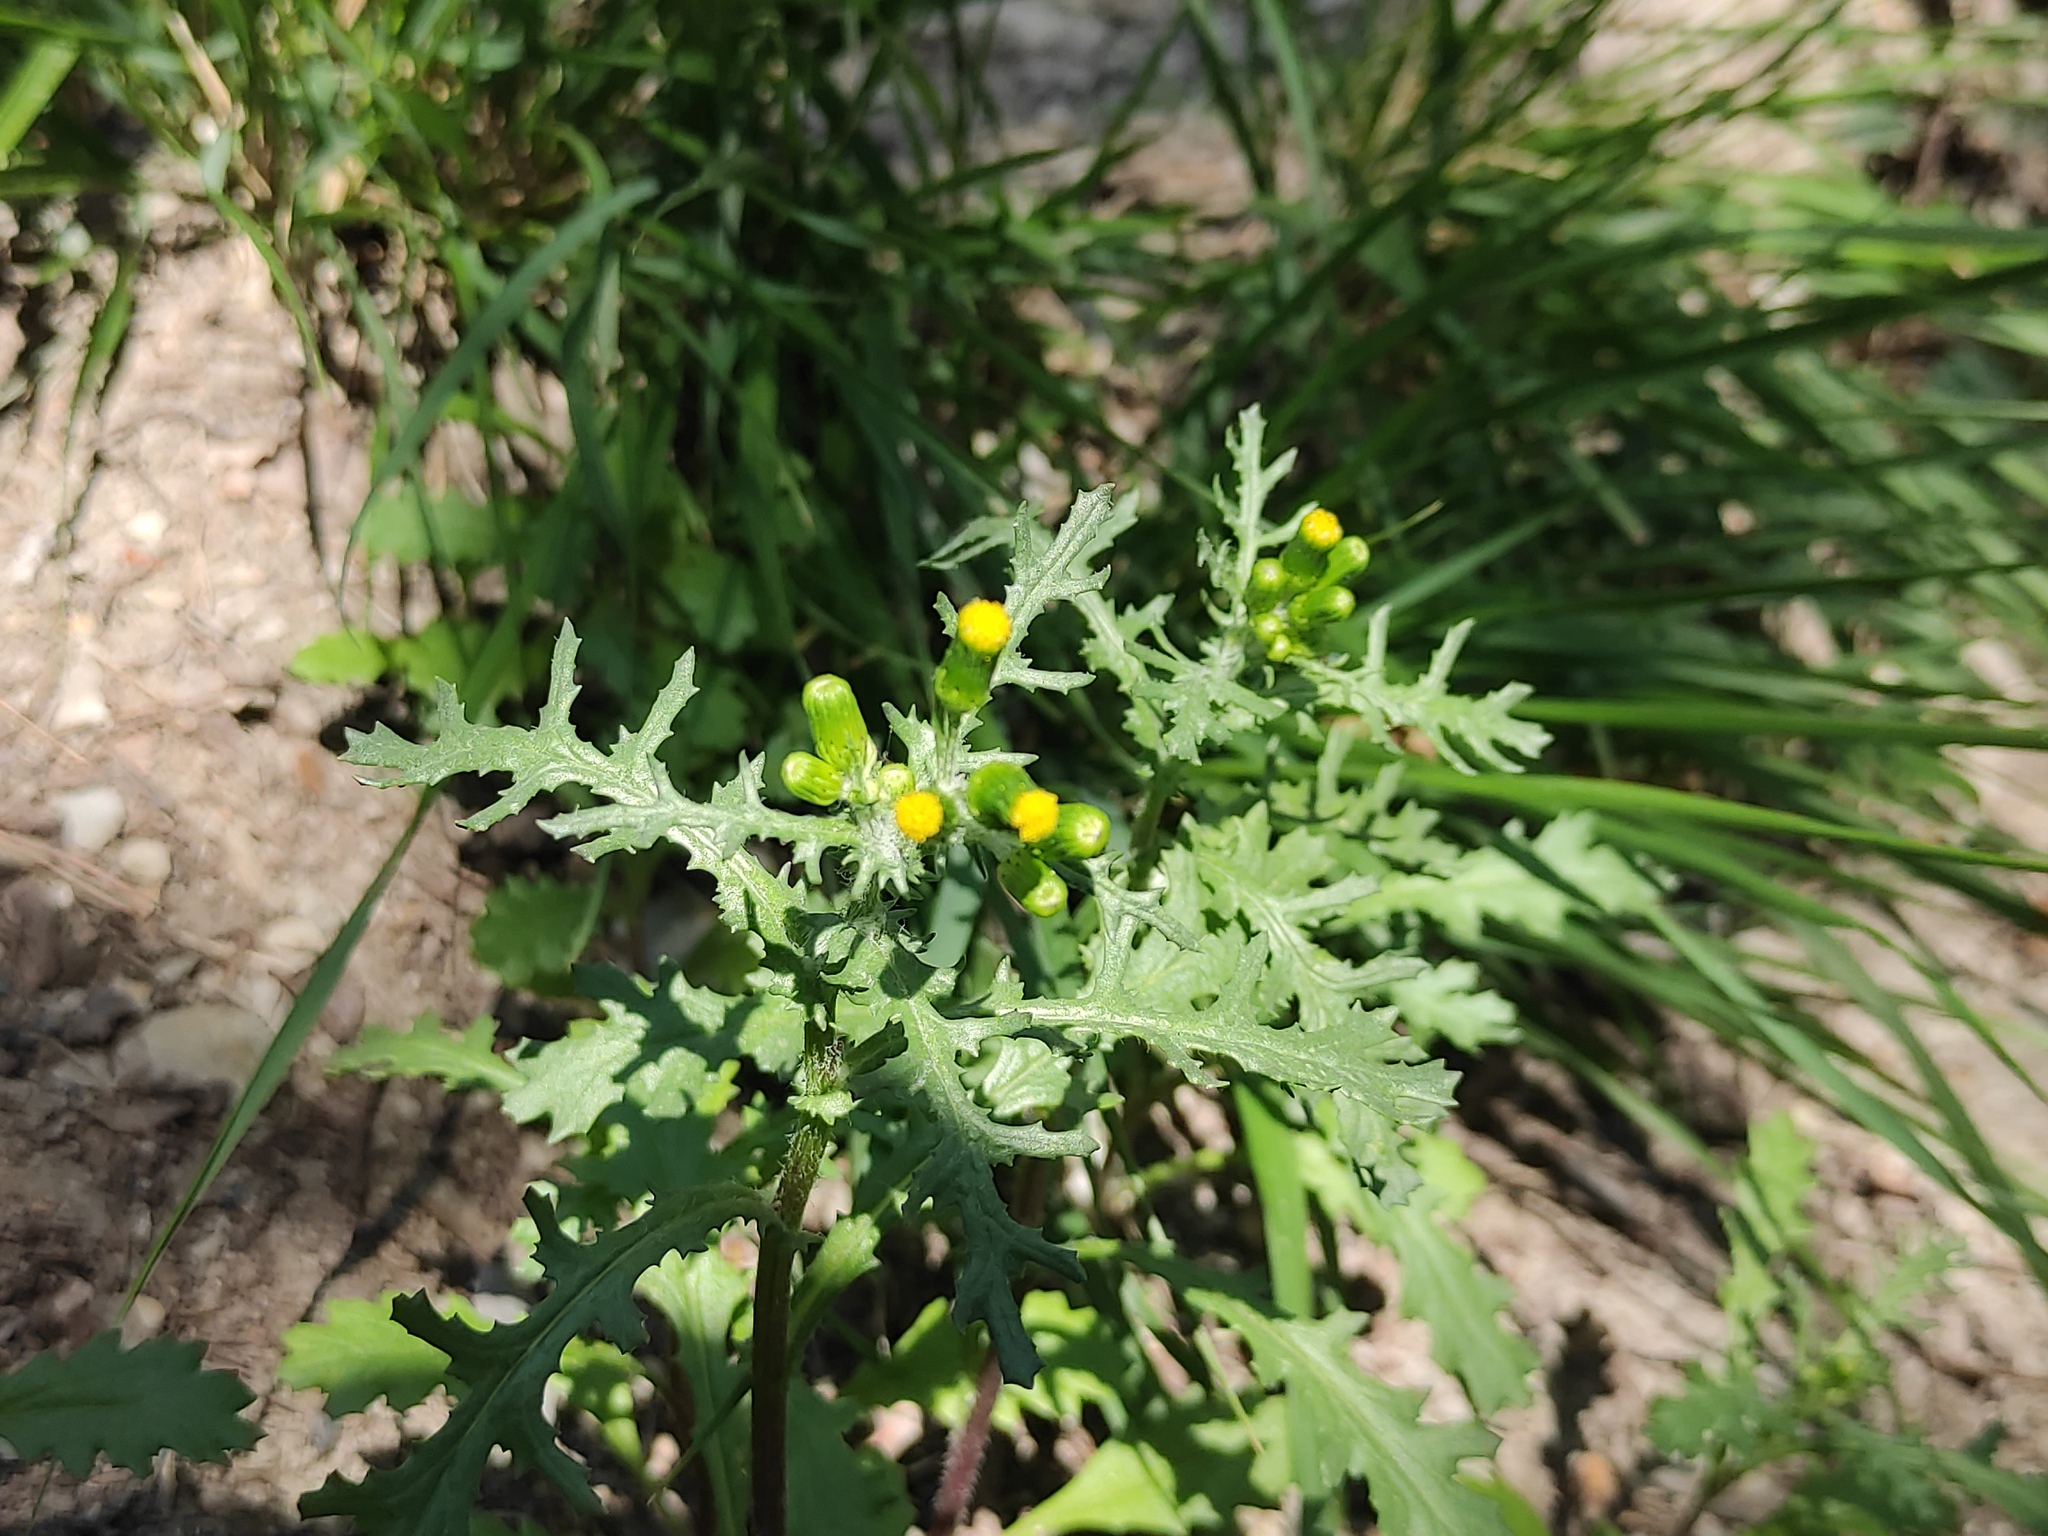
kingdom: Plantae
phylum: Tracheophyta
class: Magnoliopsida
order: Asterales
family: Asteraceae
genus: Senecio
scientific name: Senecio vulgaris
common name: Old-man-in-the-spring
